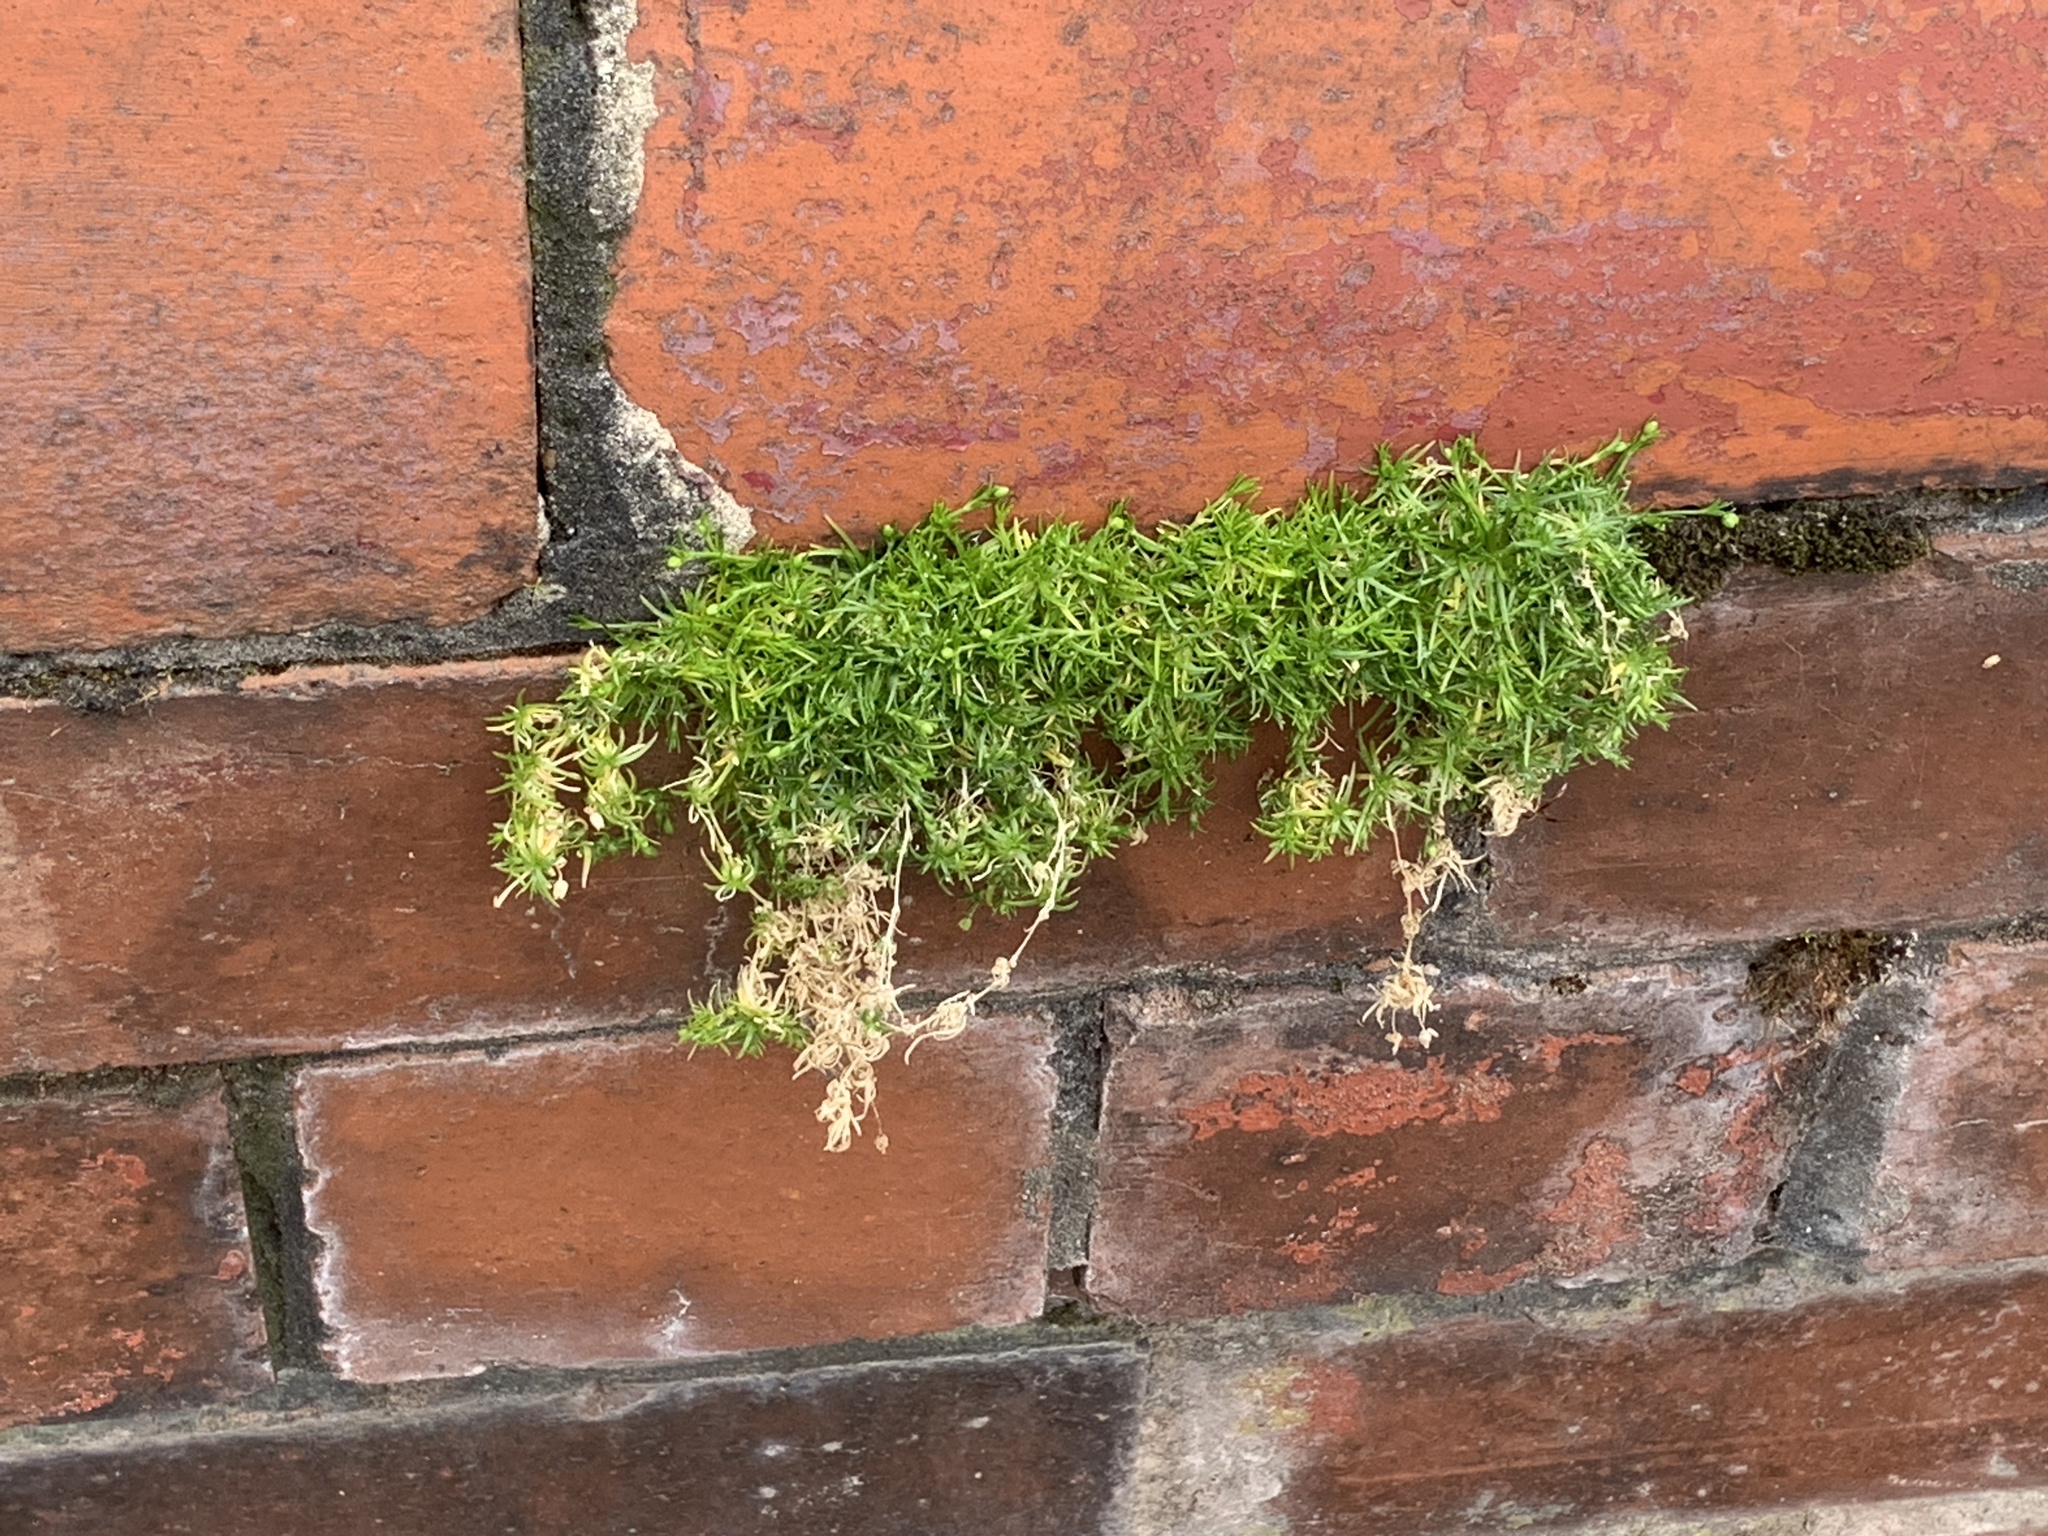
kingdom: Plantae
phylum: Tracheophyta
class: Magnoliopsida
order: Caryophyllales
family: Caryophyllaceae
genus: Sagina
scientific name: Sagina procumbens
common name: Procumbent pearlwort
